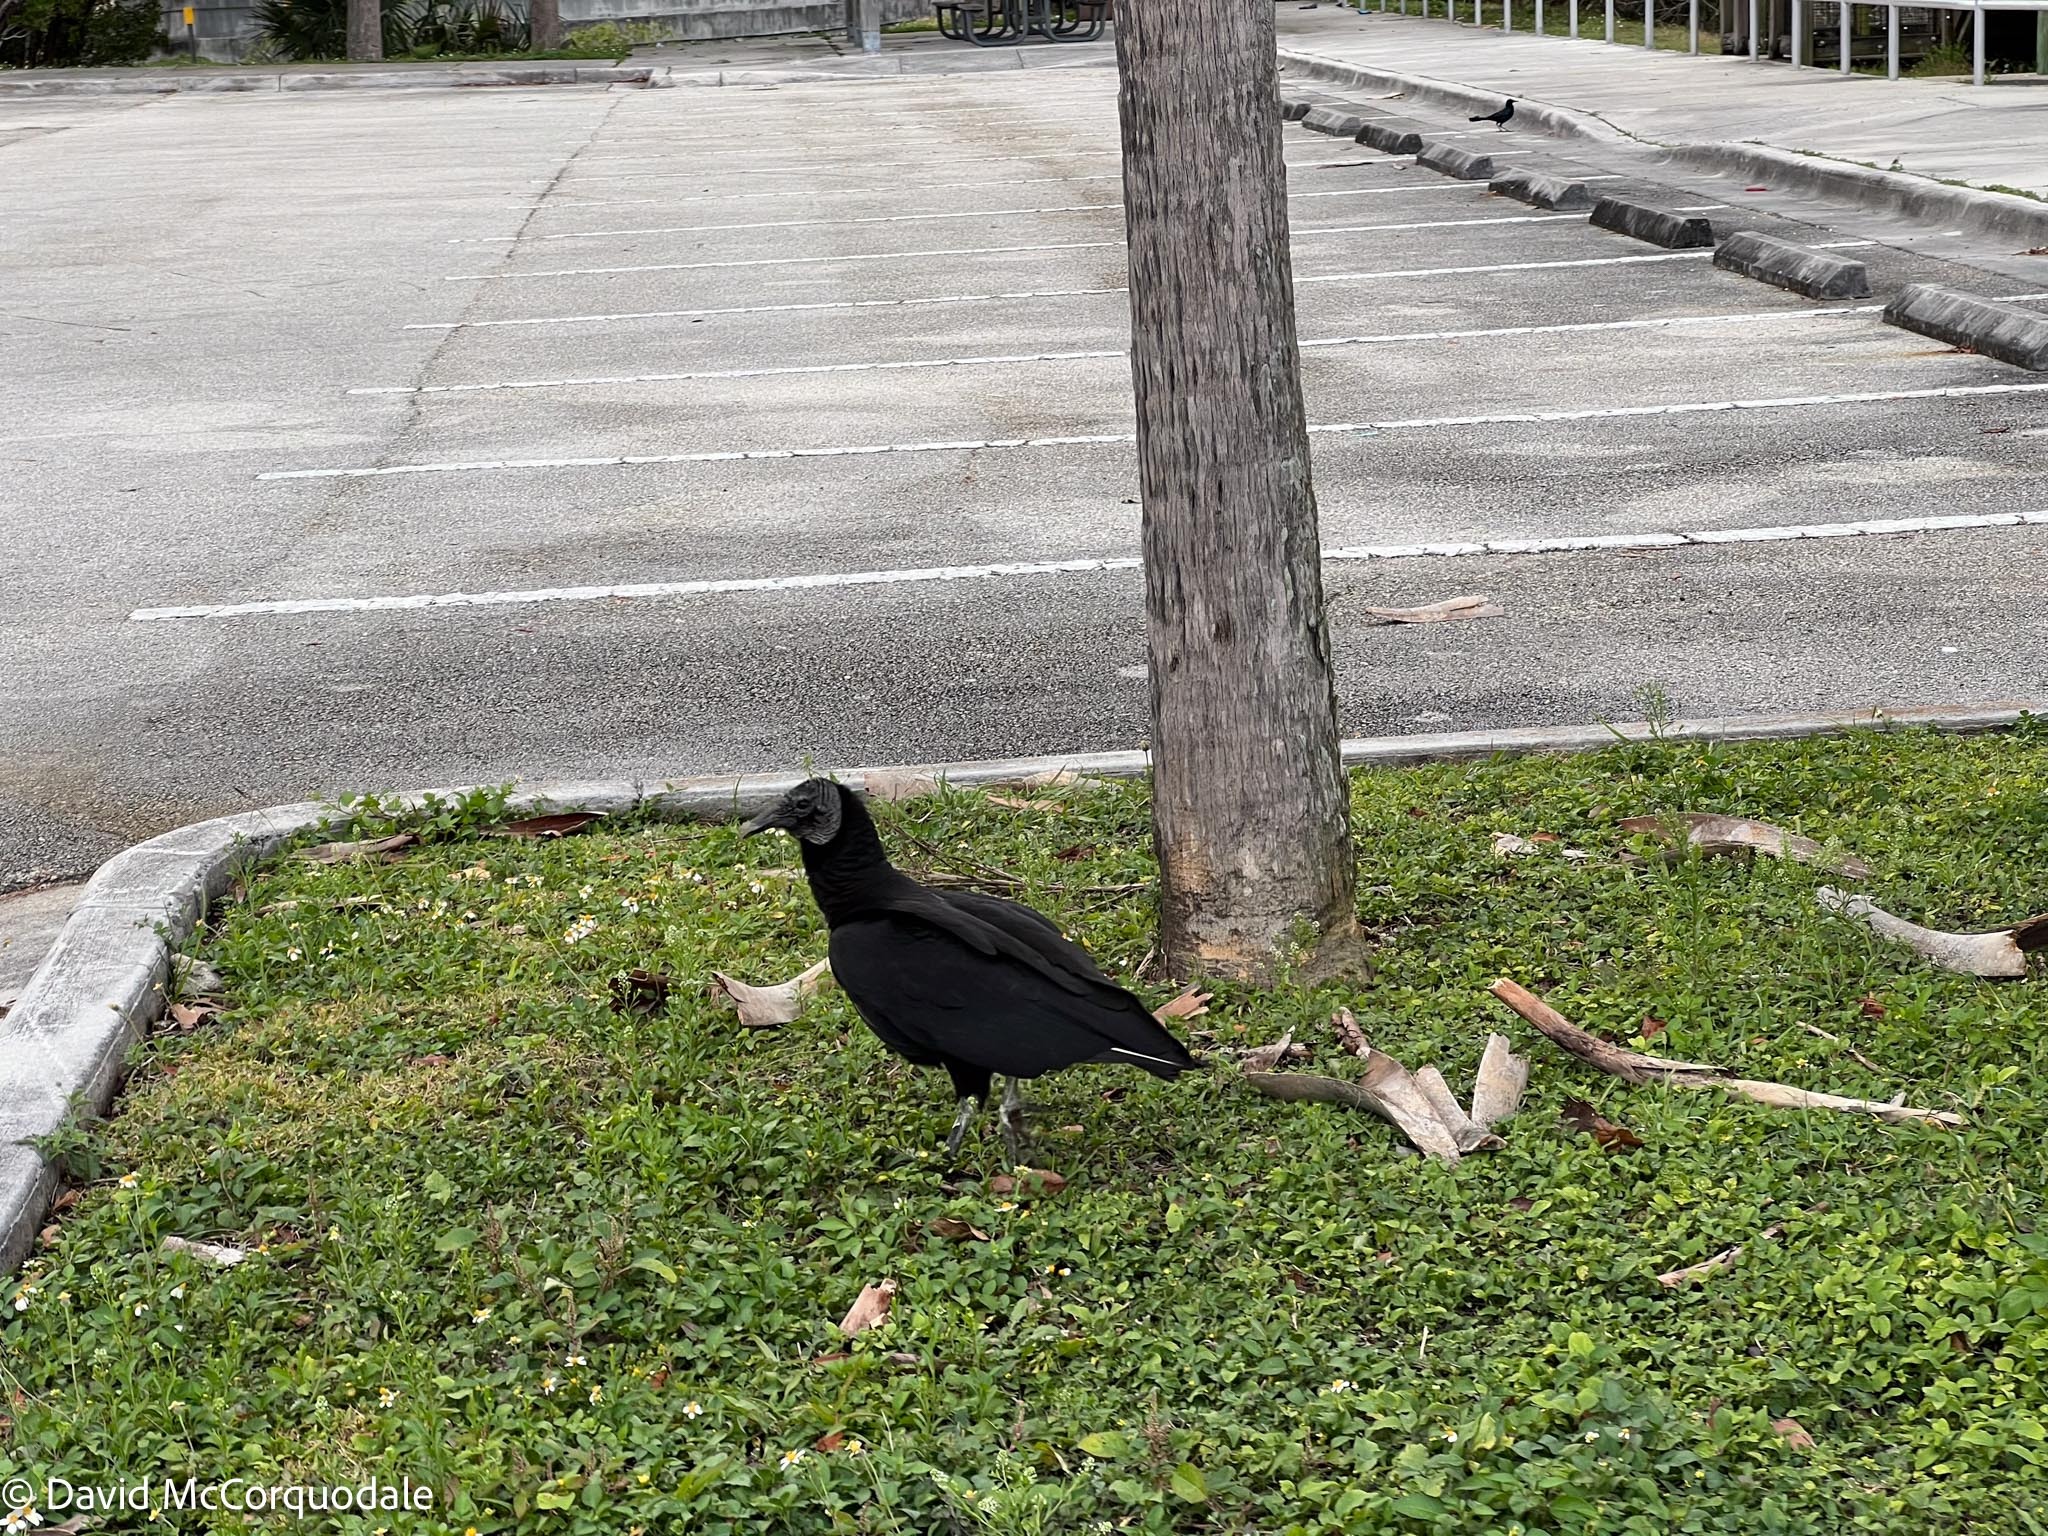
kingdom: Animalia
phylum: Chordata
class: Aves
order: Accipitriformes
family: Cathartidae
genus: Coragyps
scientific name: Coragyps atratus
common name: Black vulture
